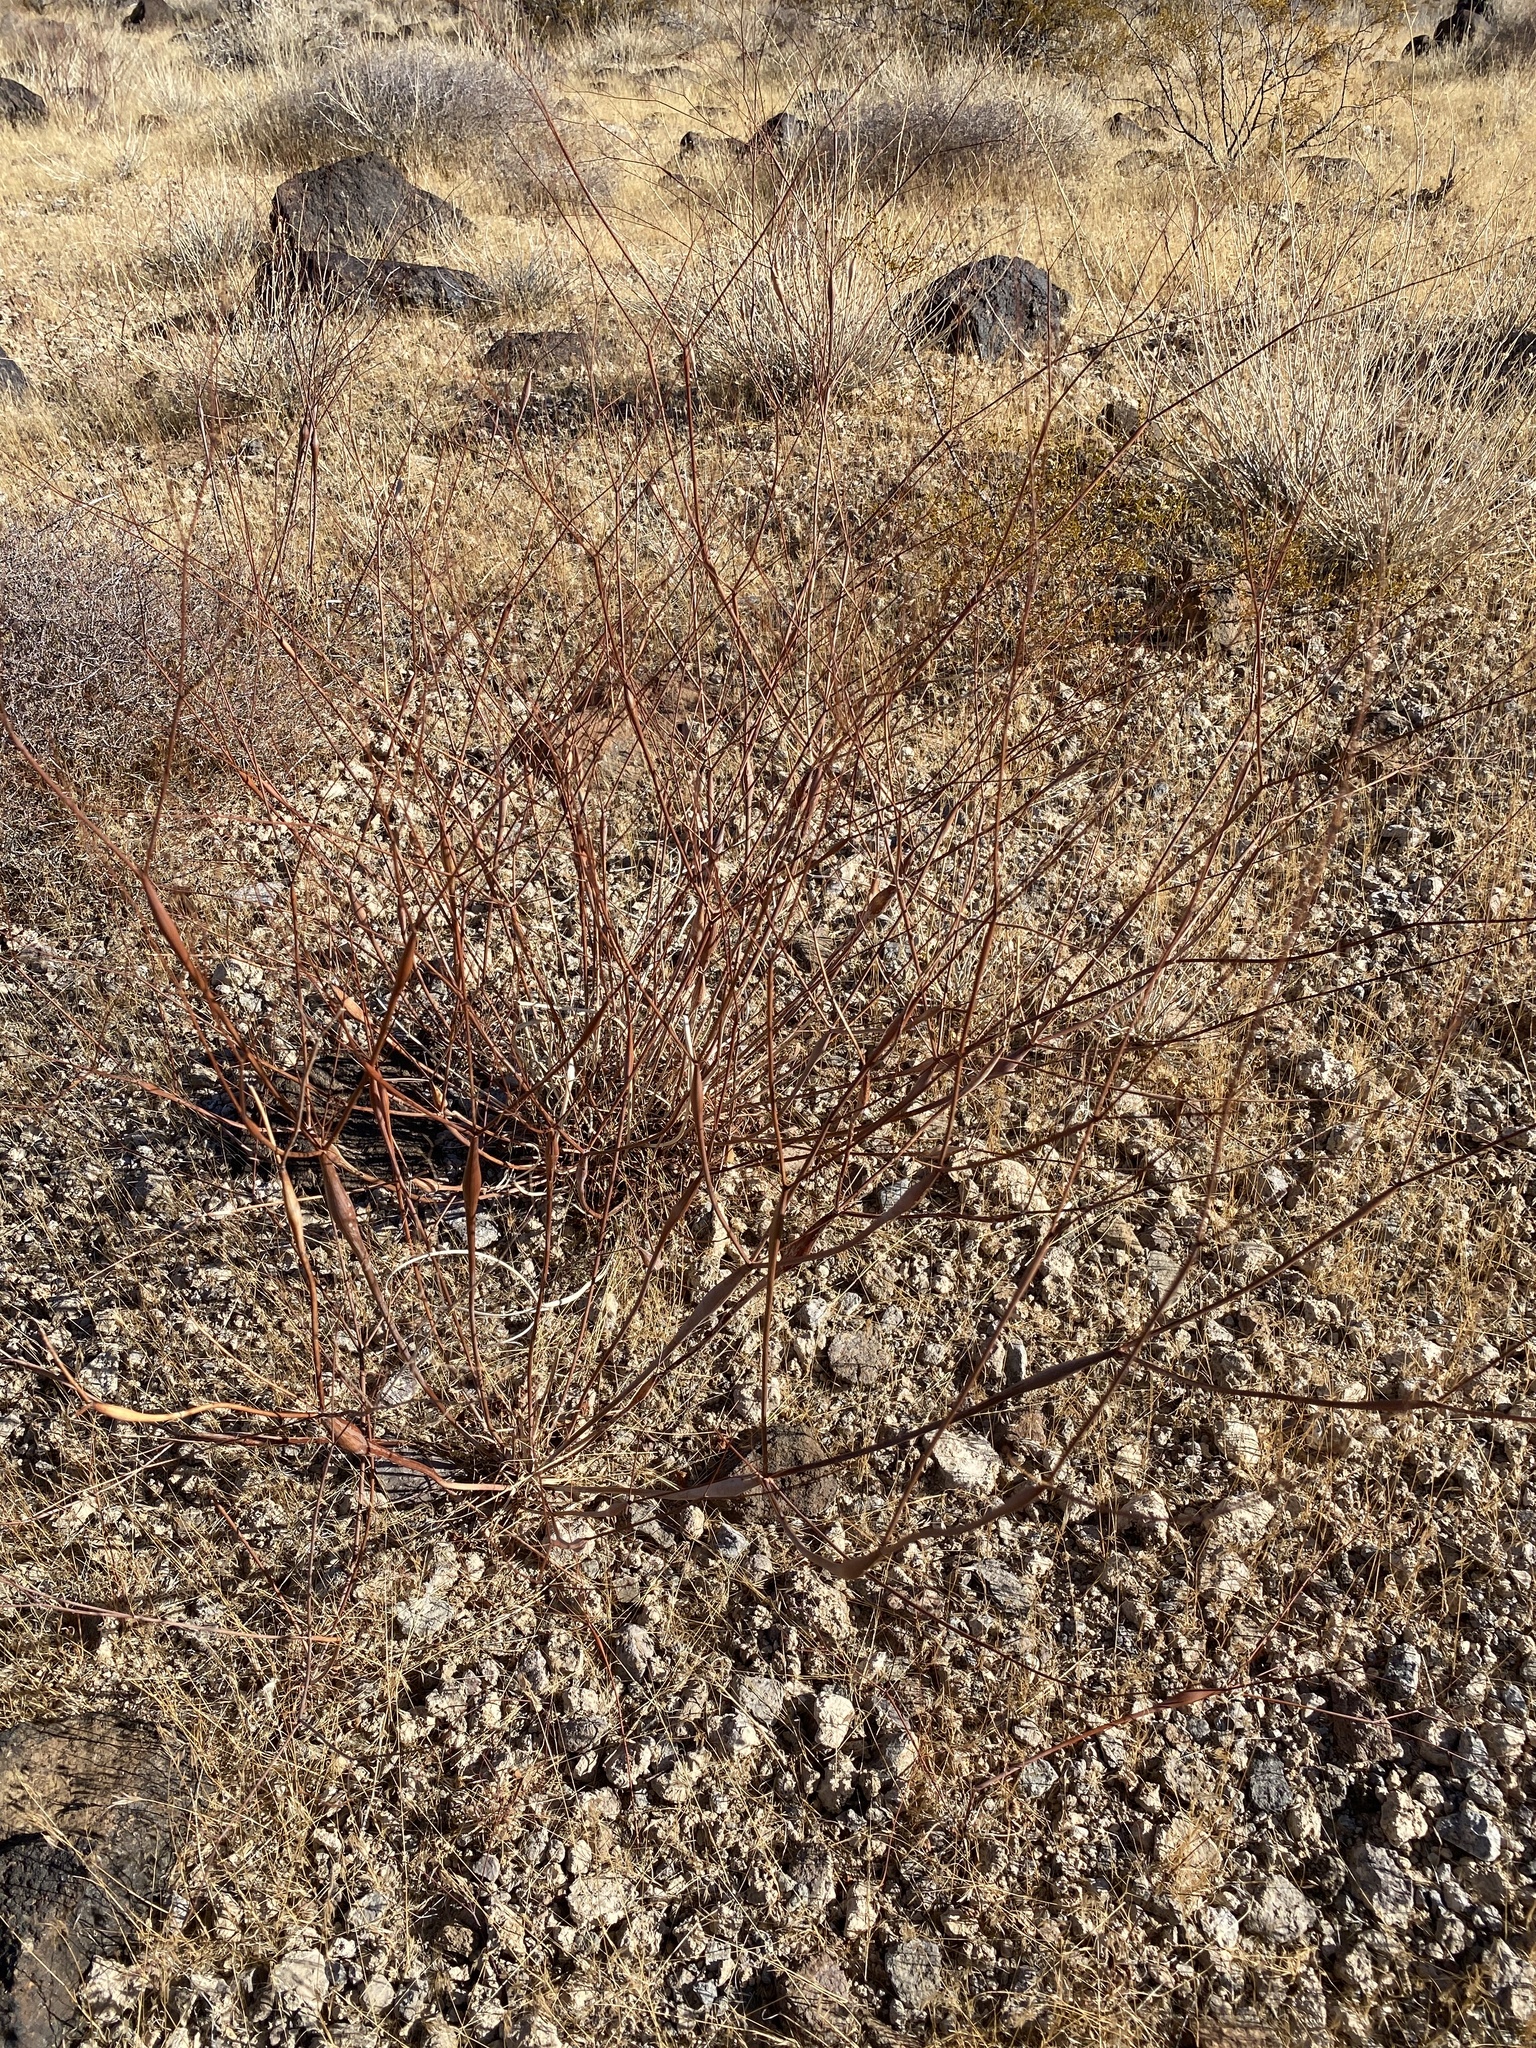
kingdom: Plantae
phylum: Tracheophyta
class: Magnoliopsida
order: Caryophyllales
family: Polygonaceae
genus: Eriogonum
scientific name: Eriogonum inflatum
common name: Desert trumpet
